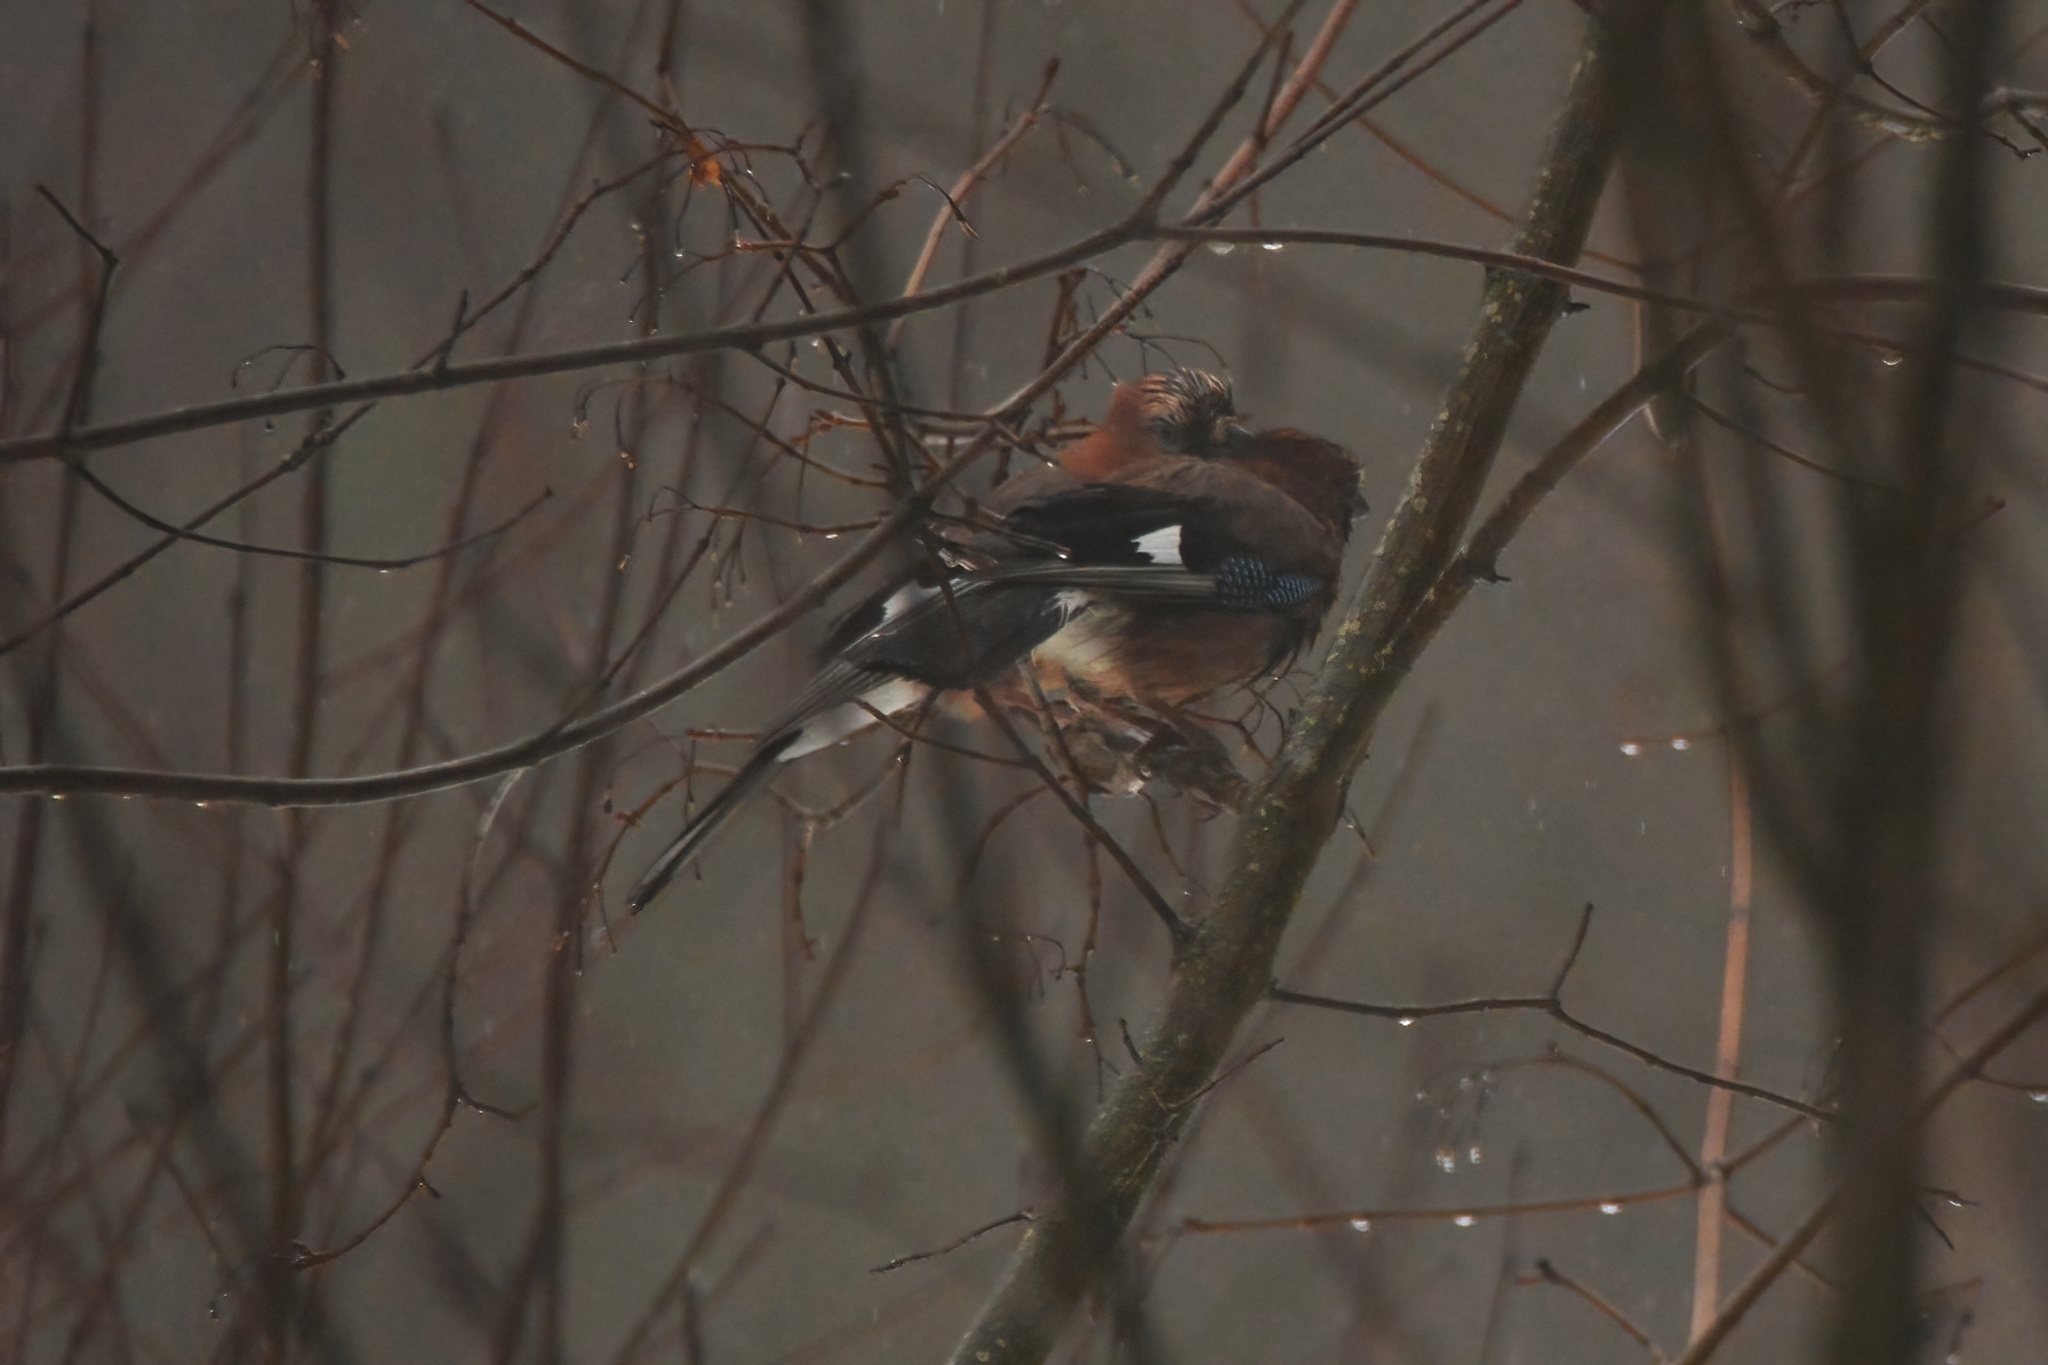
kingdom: Animalia
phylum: Chordata
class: Aves
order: Passeriformes
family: Corvidae
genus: Garrulus
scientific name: Garrulus glandarius
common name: Eurasian jay
